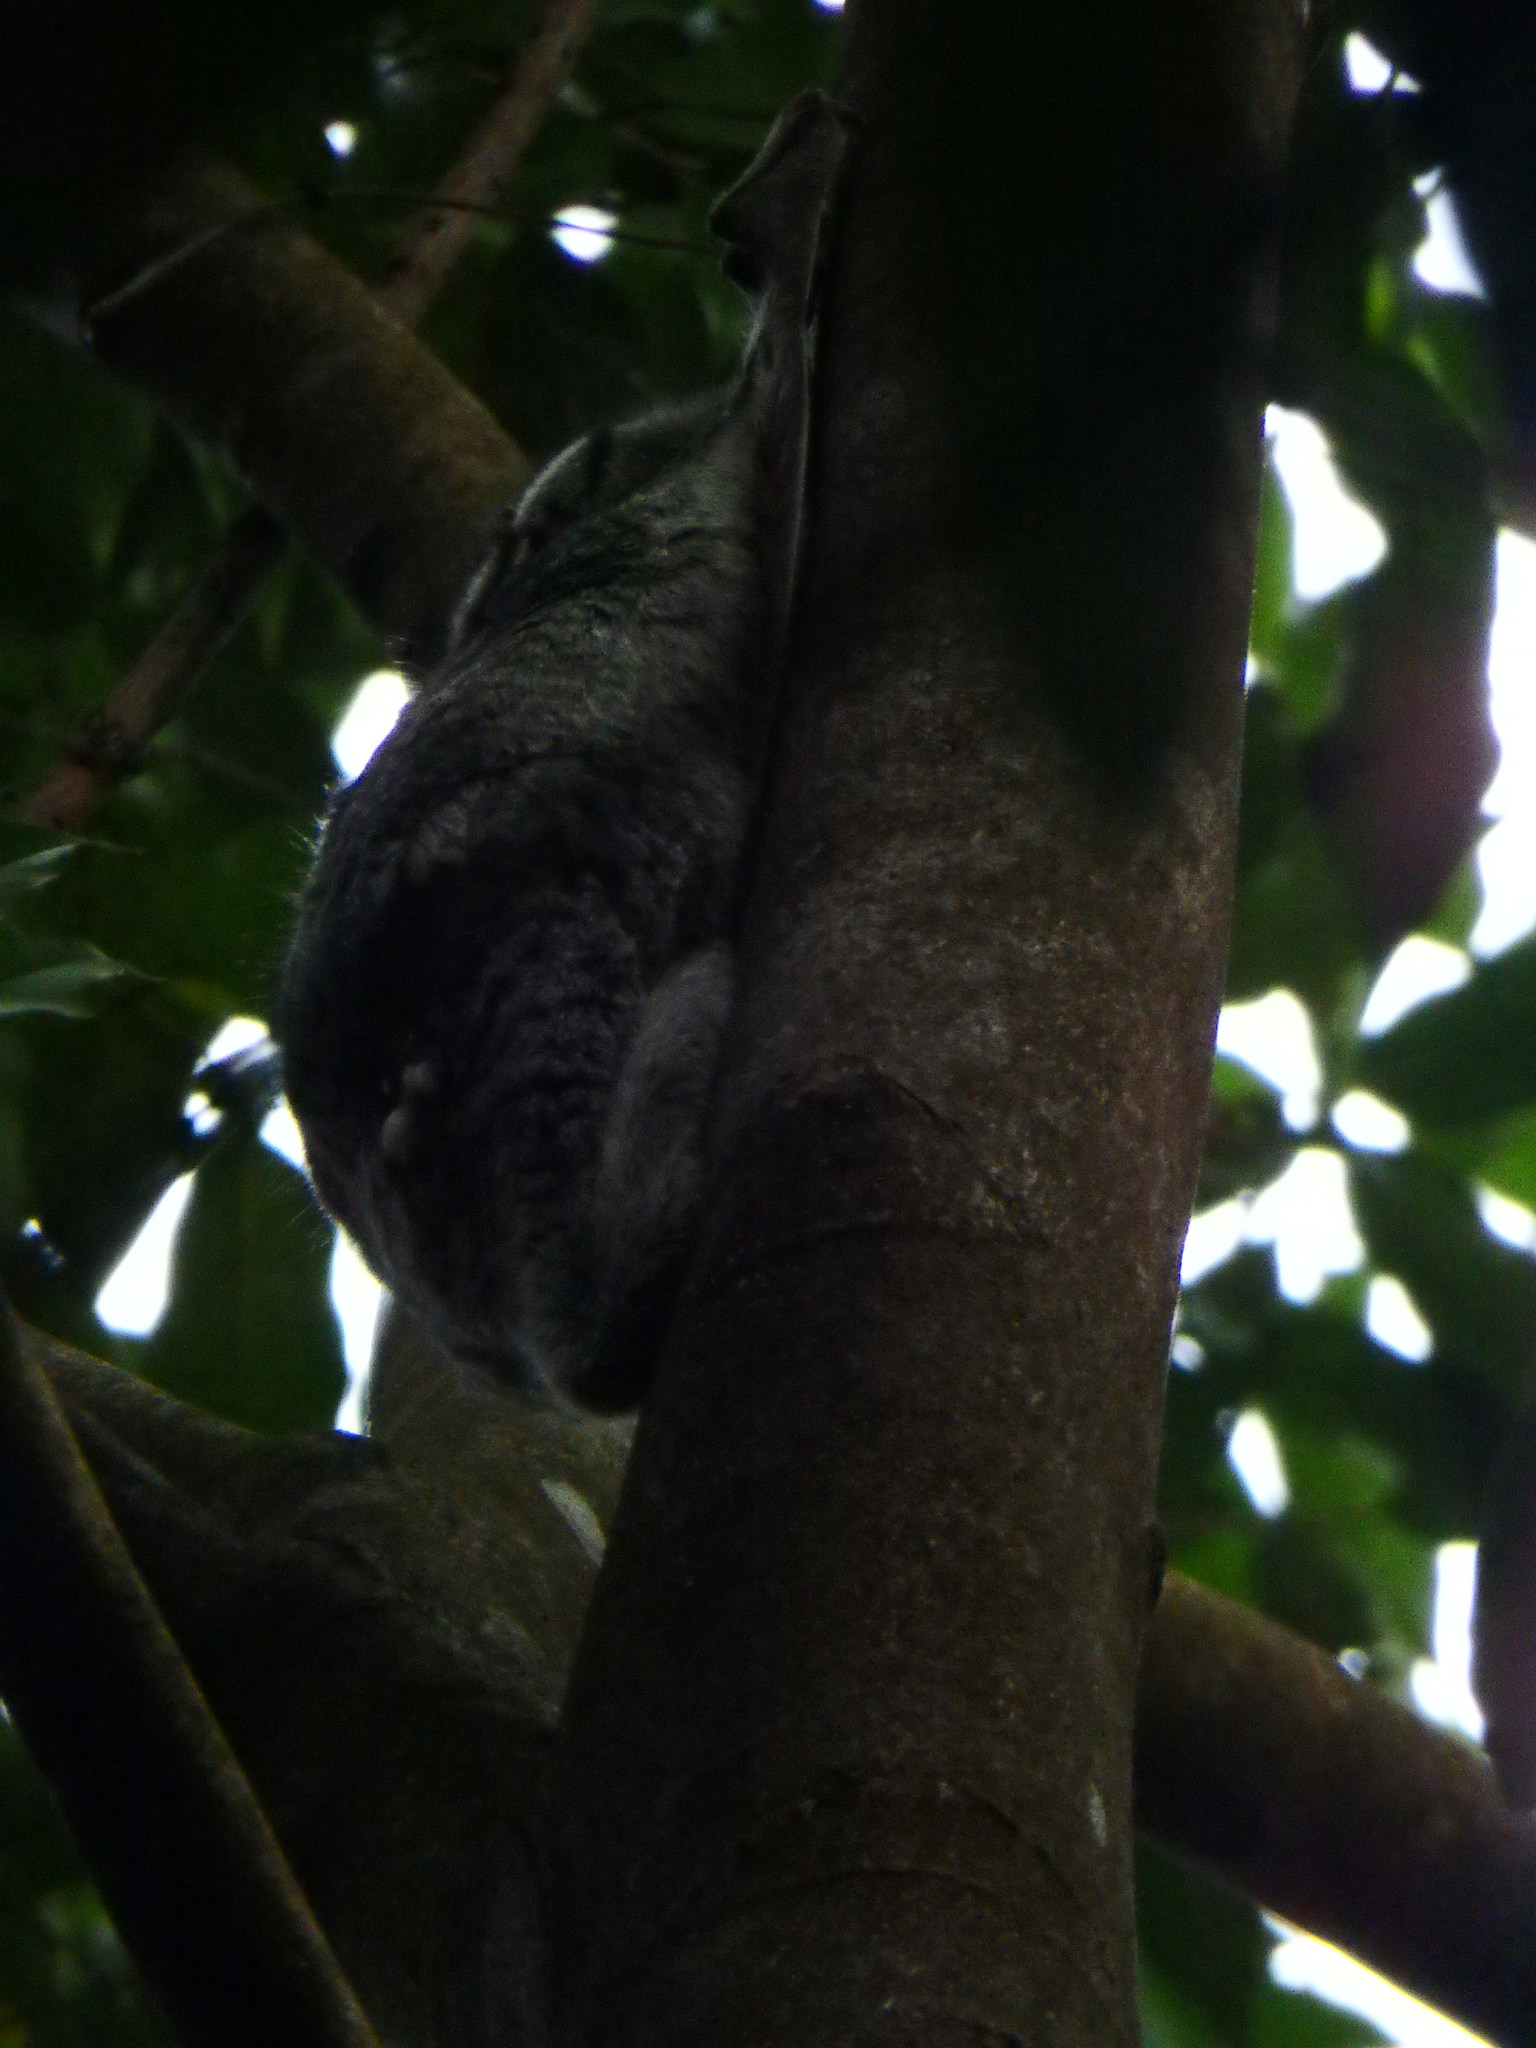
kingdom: Animalia
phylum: Chordata
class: Mammalia
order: Dermoptera
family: Cynocephalidae
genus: Galeopterus
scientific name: Galeopterus variegatus
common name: Sunda flying lemur
